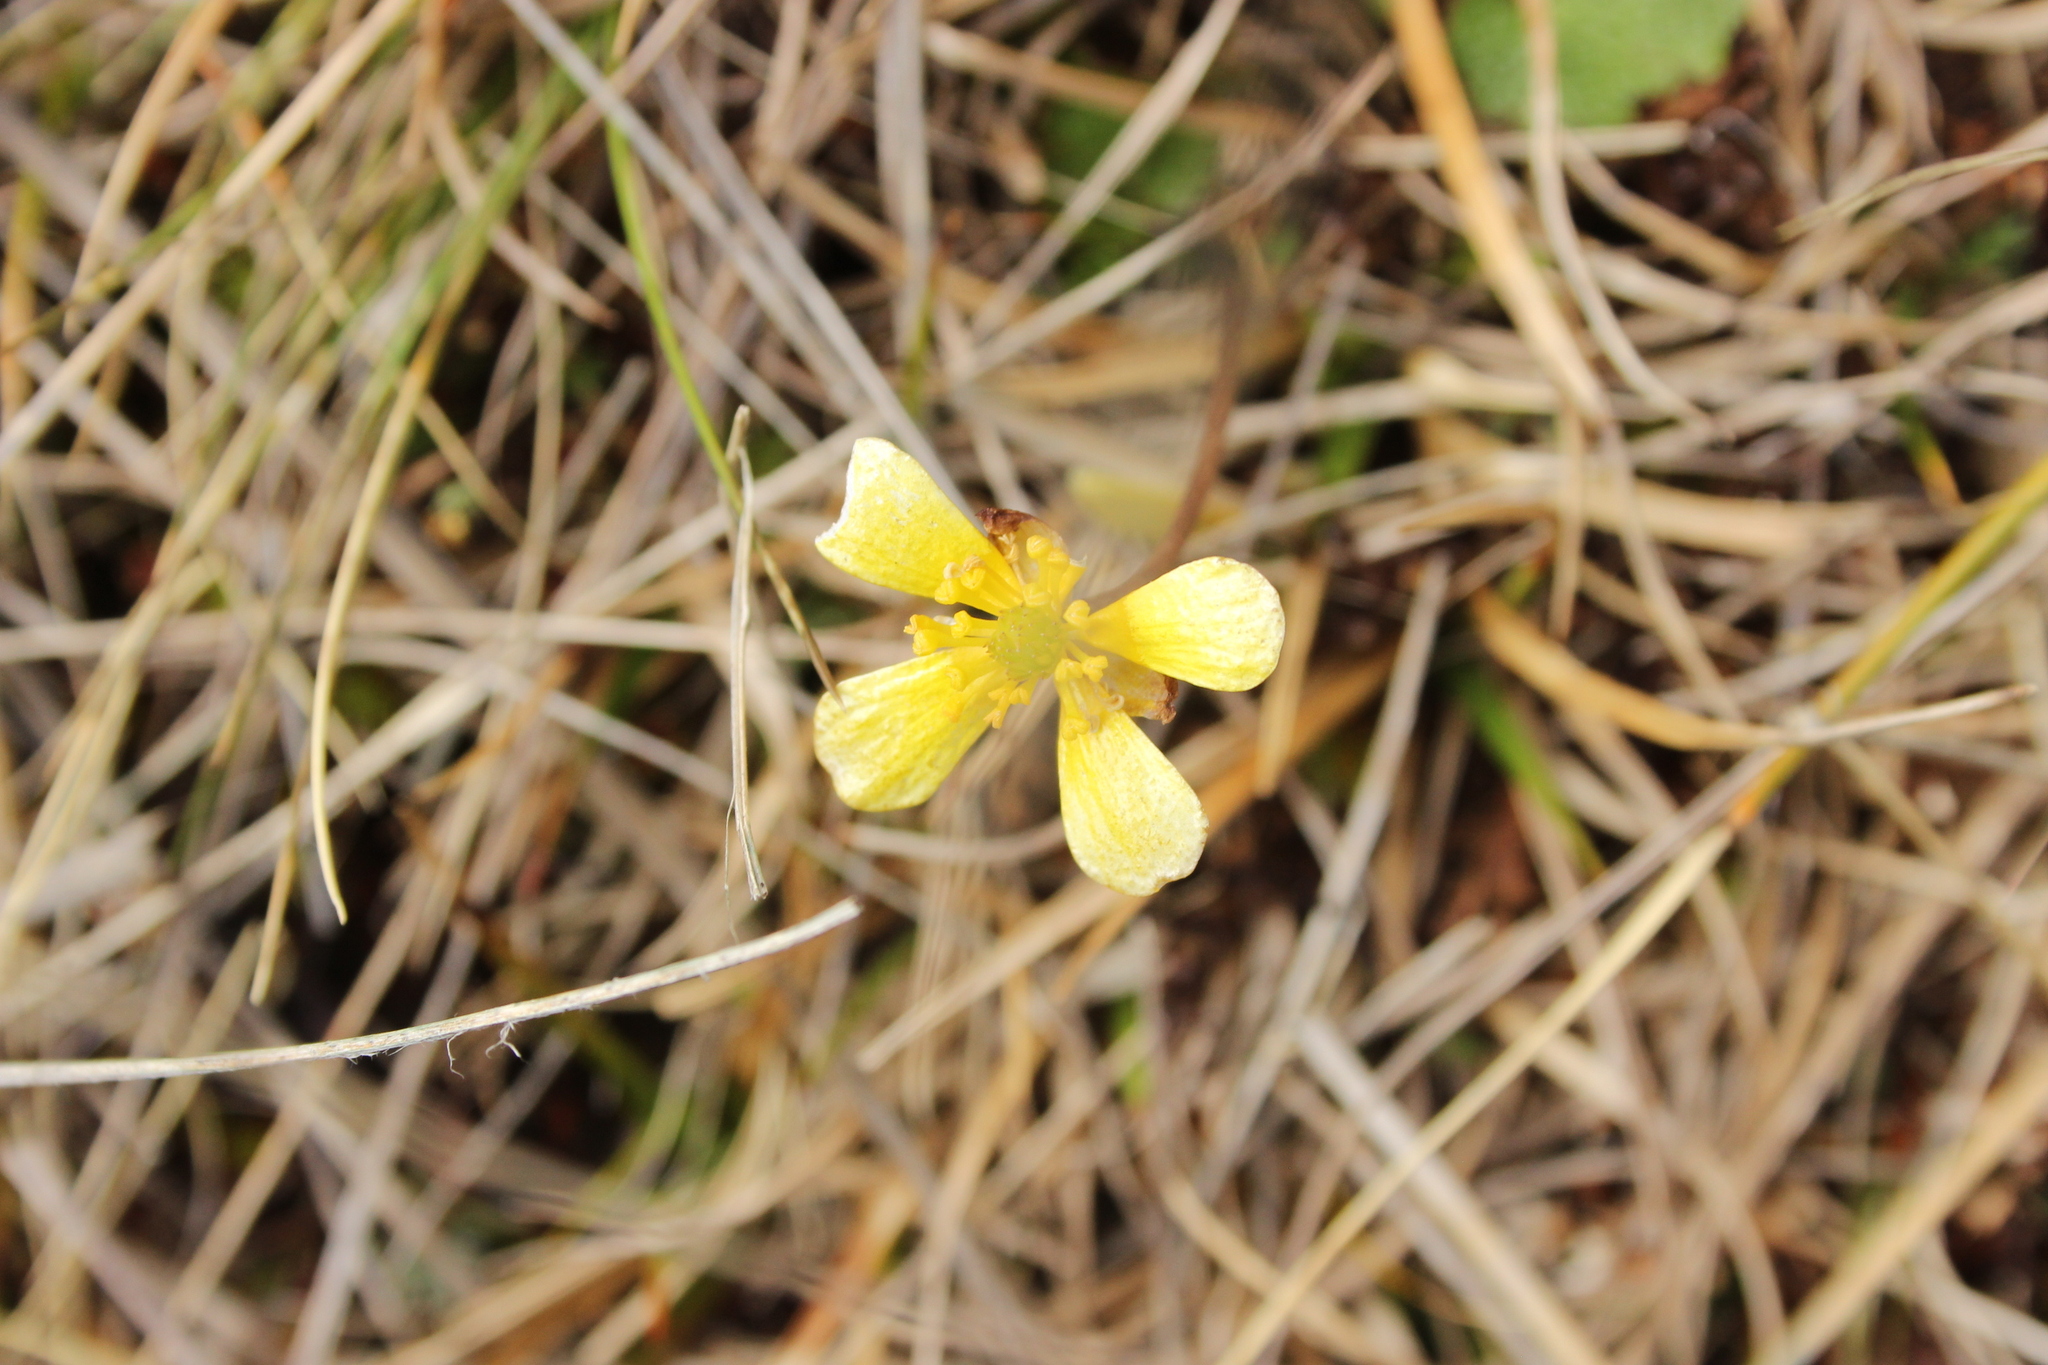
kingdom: Plantae
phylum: Tracheophyta
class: Magnoliopsida
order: Ranunculales
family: Ranunculaceae
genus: Ranunculus
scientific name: Ranunculus enysii
